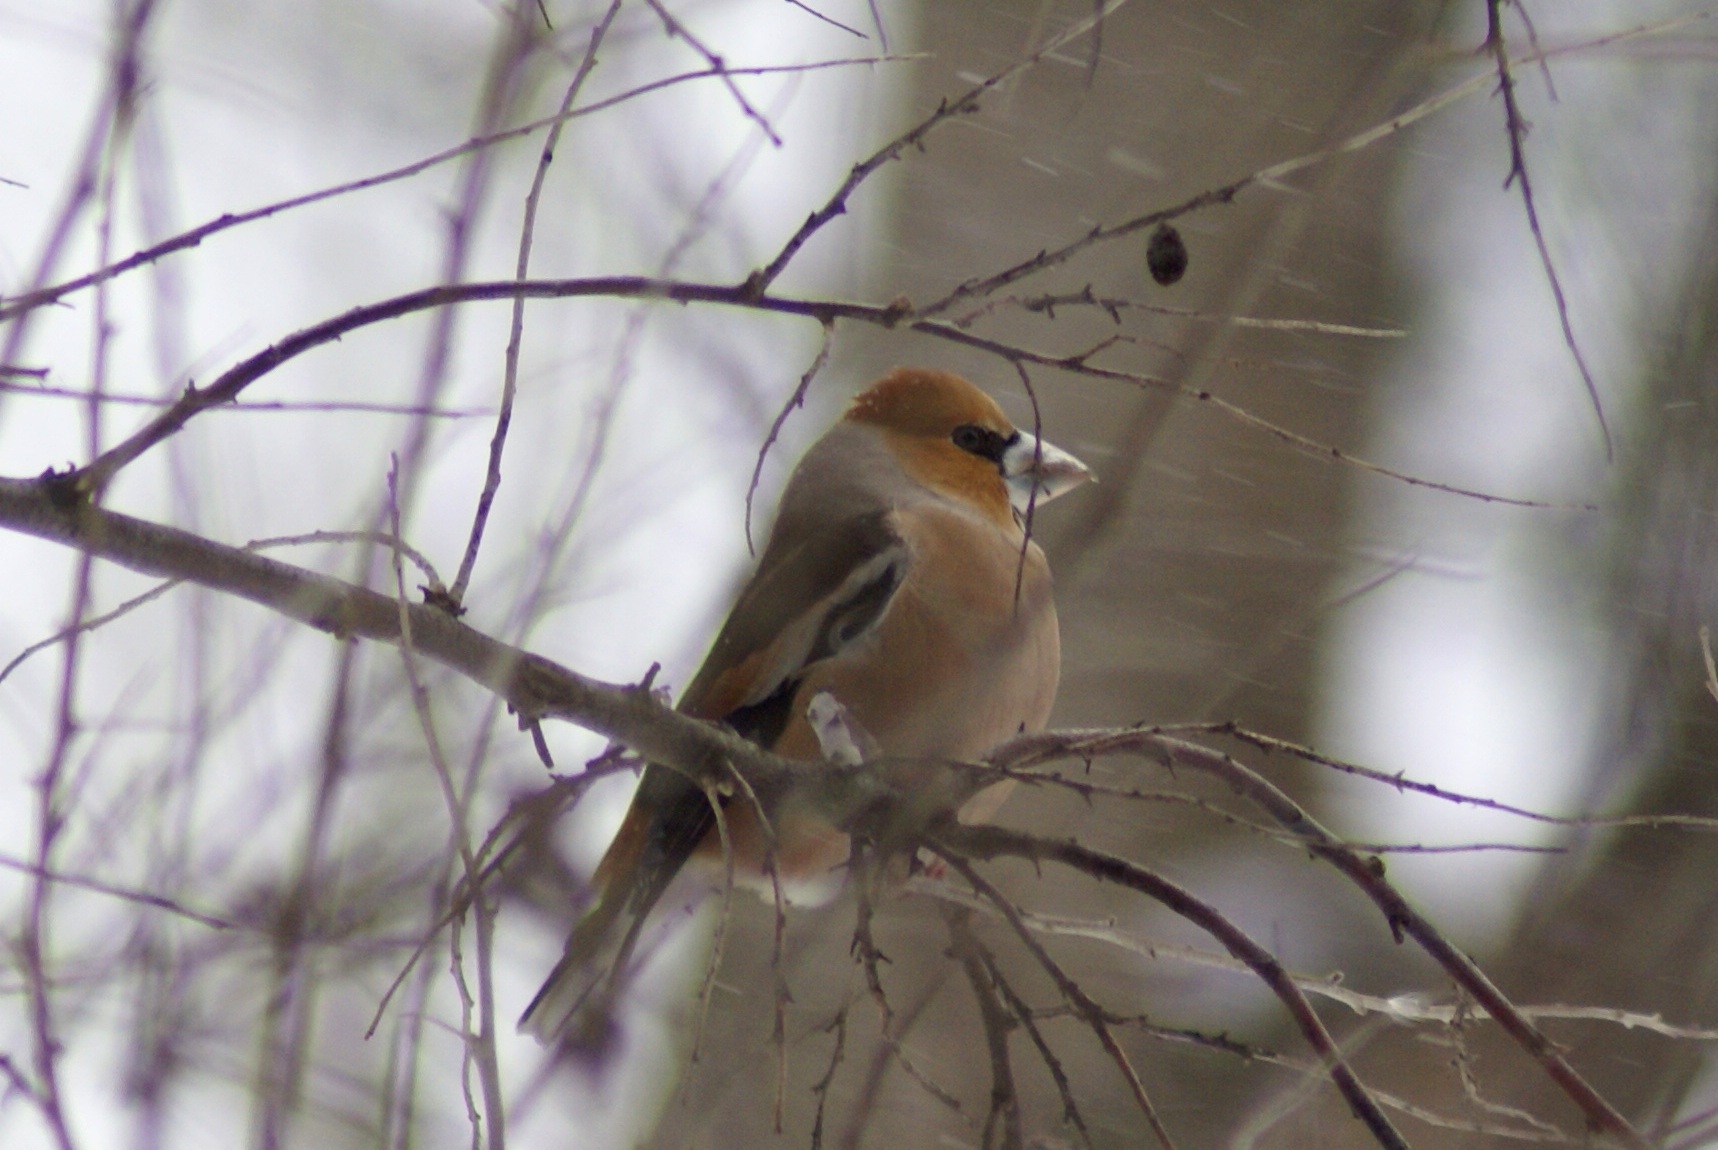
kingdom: Animalia
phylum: Chordata
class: Aves
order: Passeriformes
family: Fringillidae
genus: Coccothraustes
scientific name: Coccothraustes coccothraustes
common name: Hawfinch
